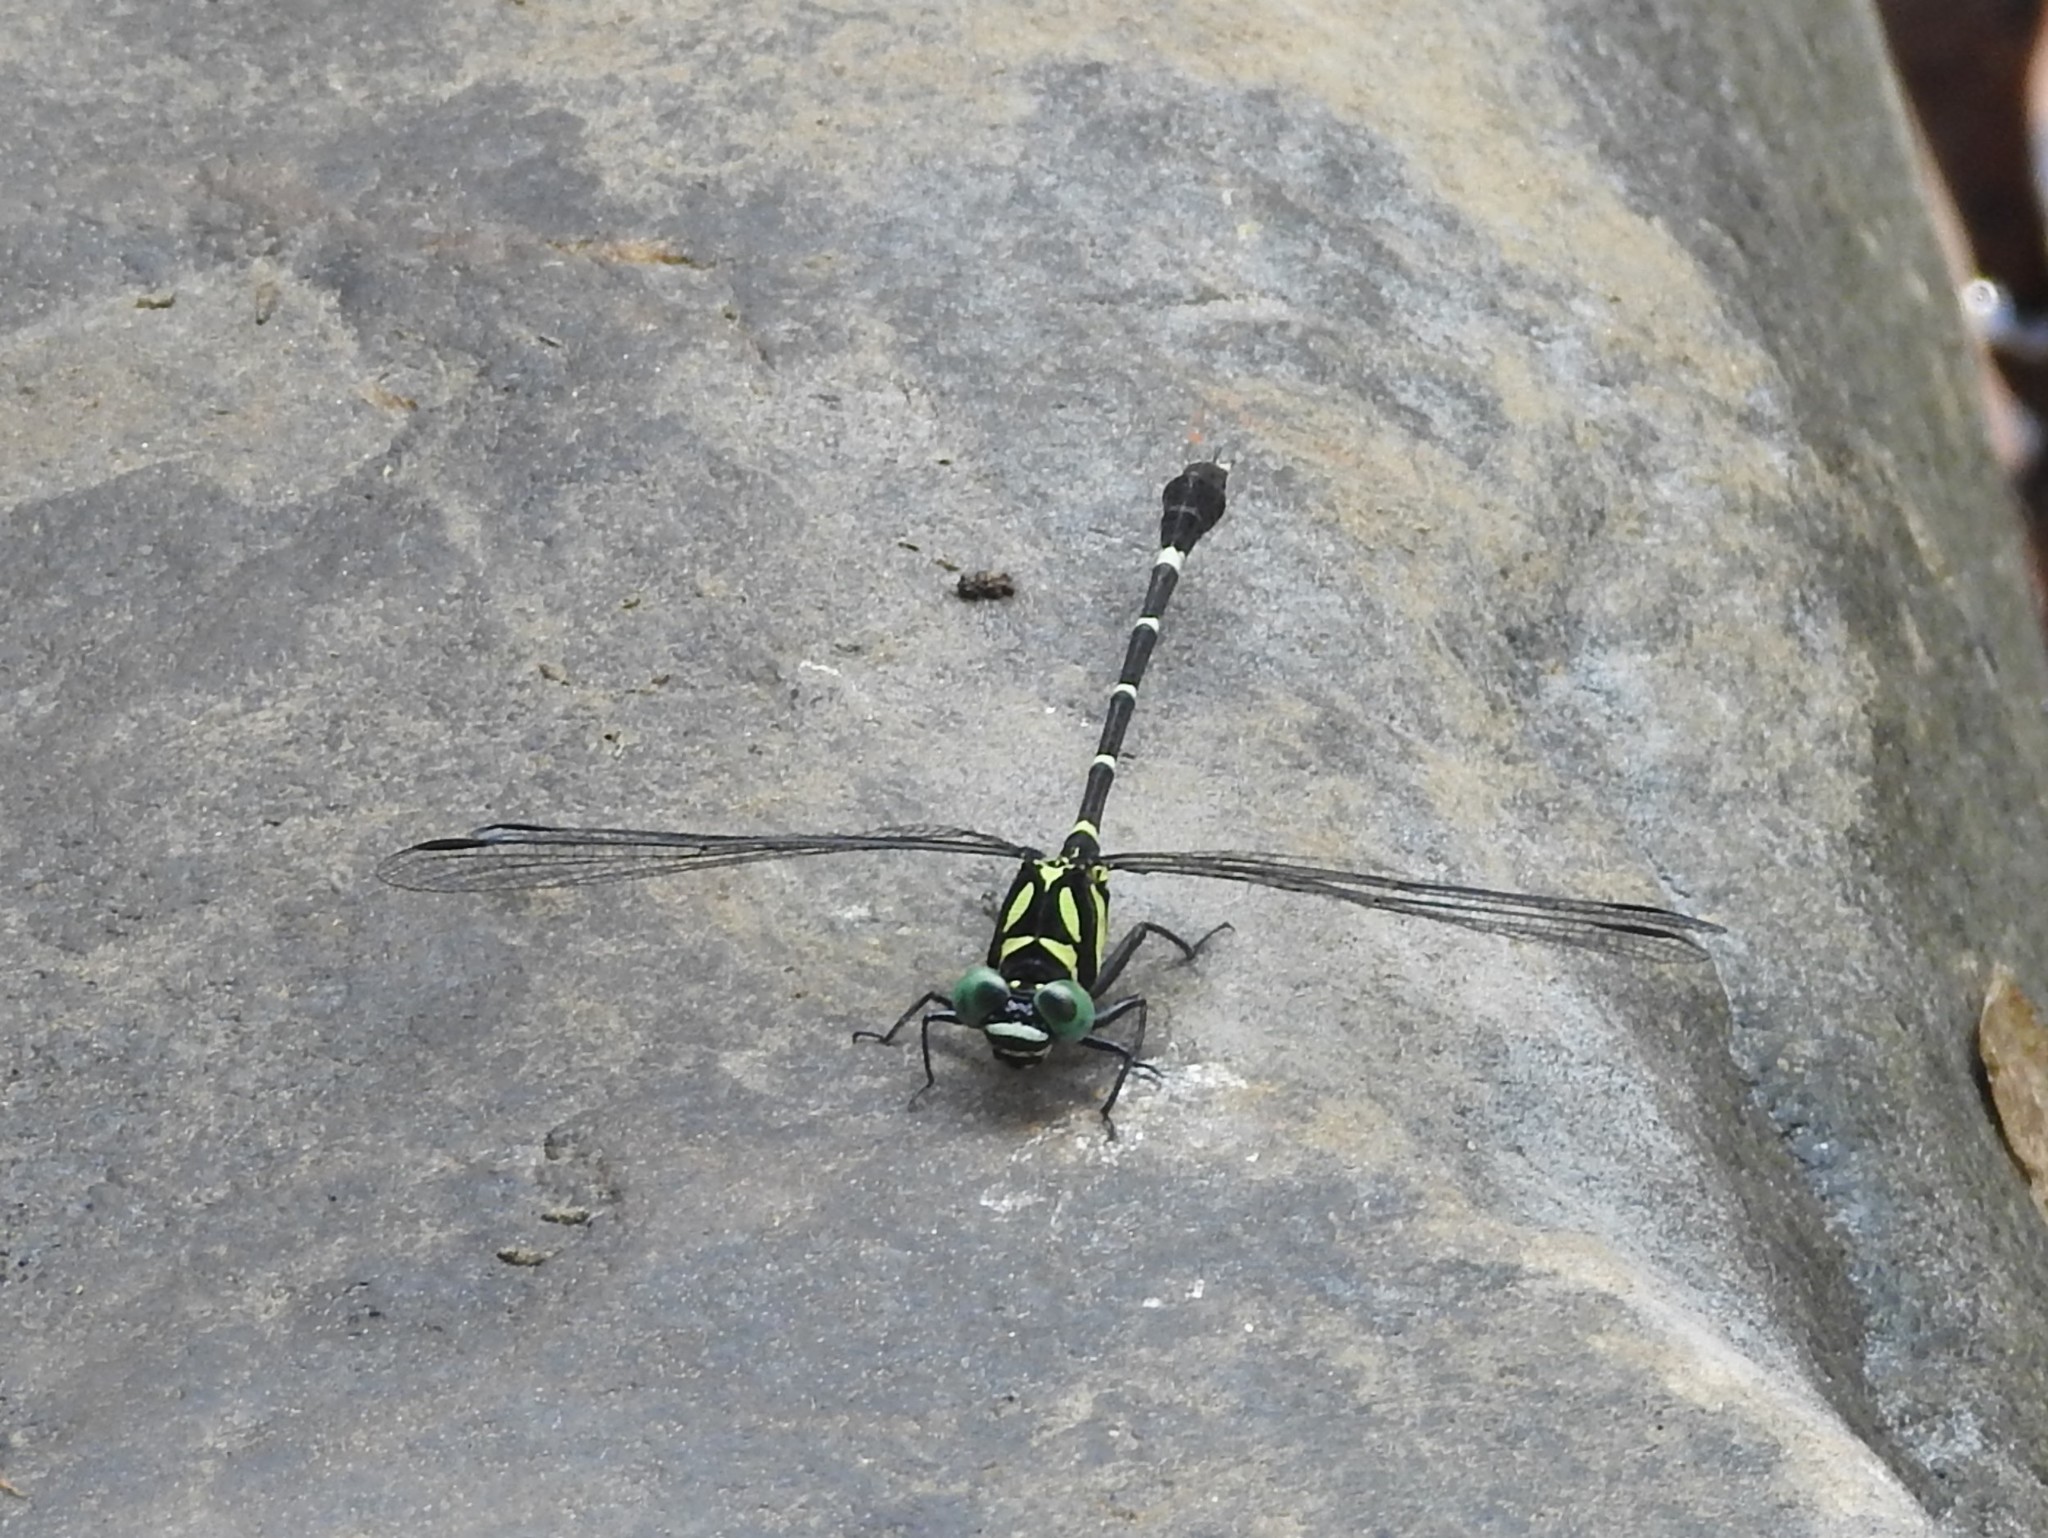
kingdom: Animalia
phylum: Arthropoda
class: Insecta
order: Odonata
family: Gomphidae
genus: Microgomphus
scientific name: Microgomphus souteri
